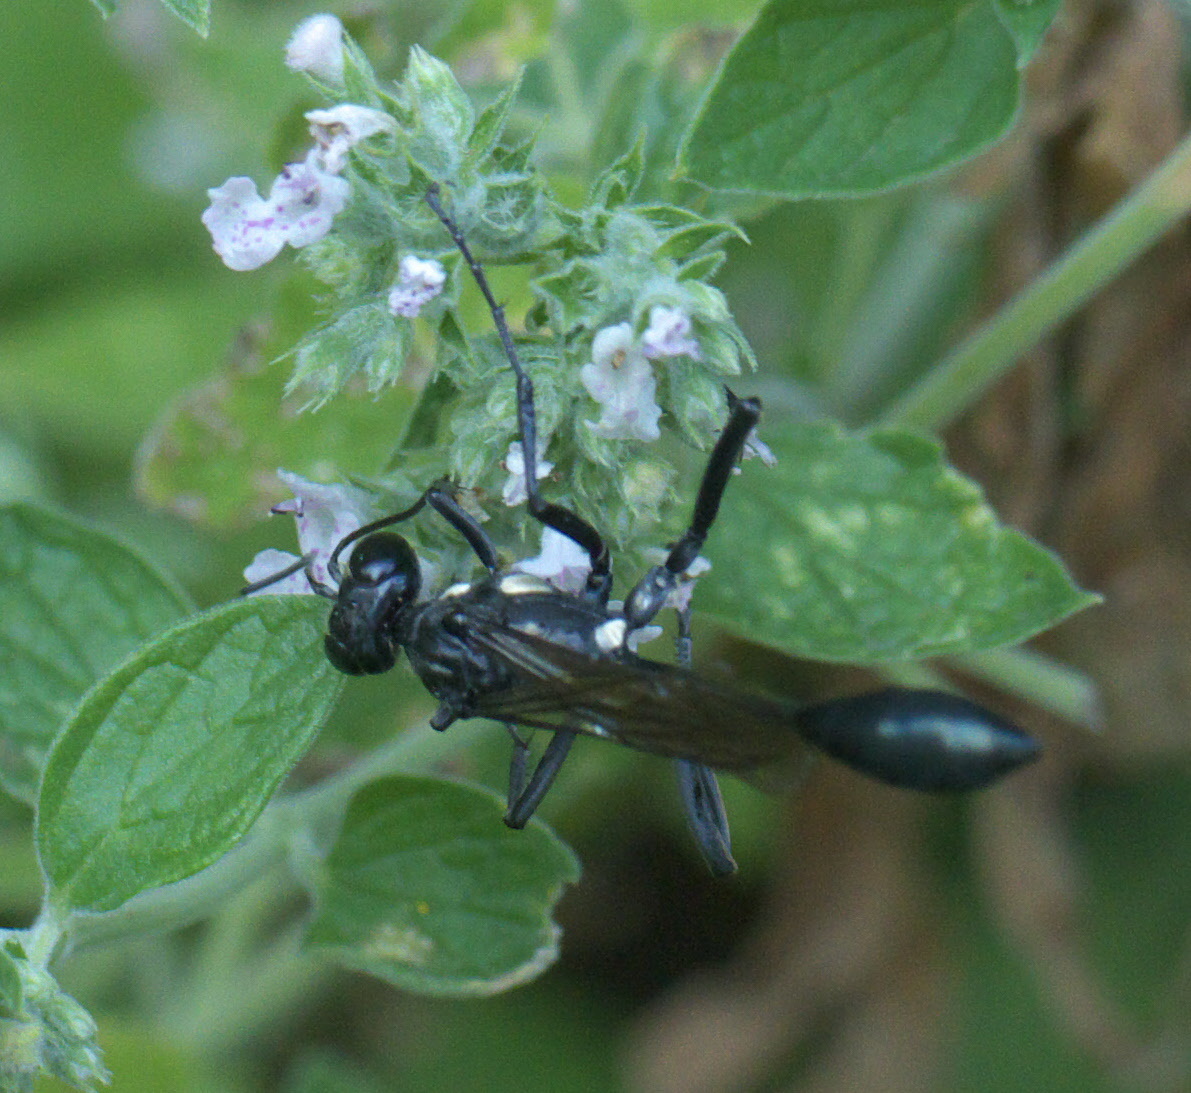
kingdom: Animalia
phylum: Arthropoda
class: Insecta
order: Hymenoptera
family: Sphecidae
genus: Eremnophila
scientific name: Eremnophila aureonotata
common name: Gold-marked thread-waisted wasp
